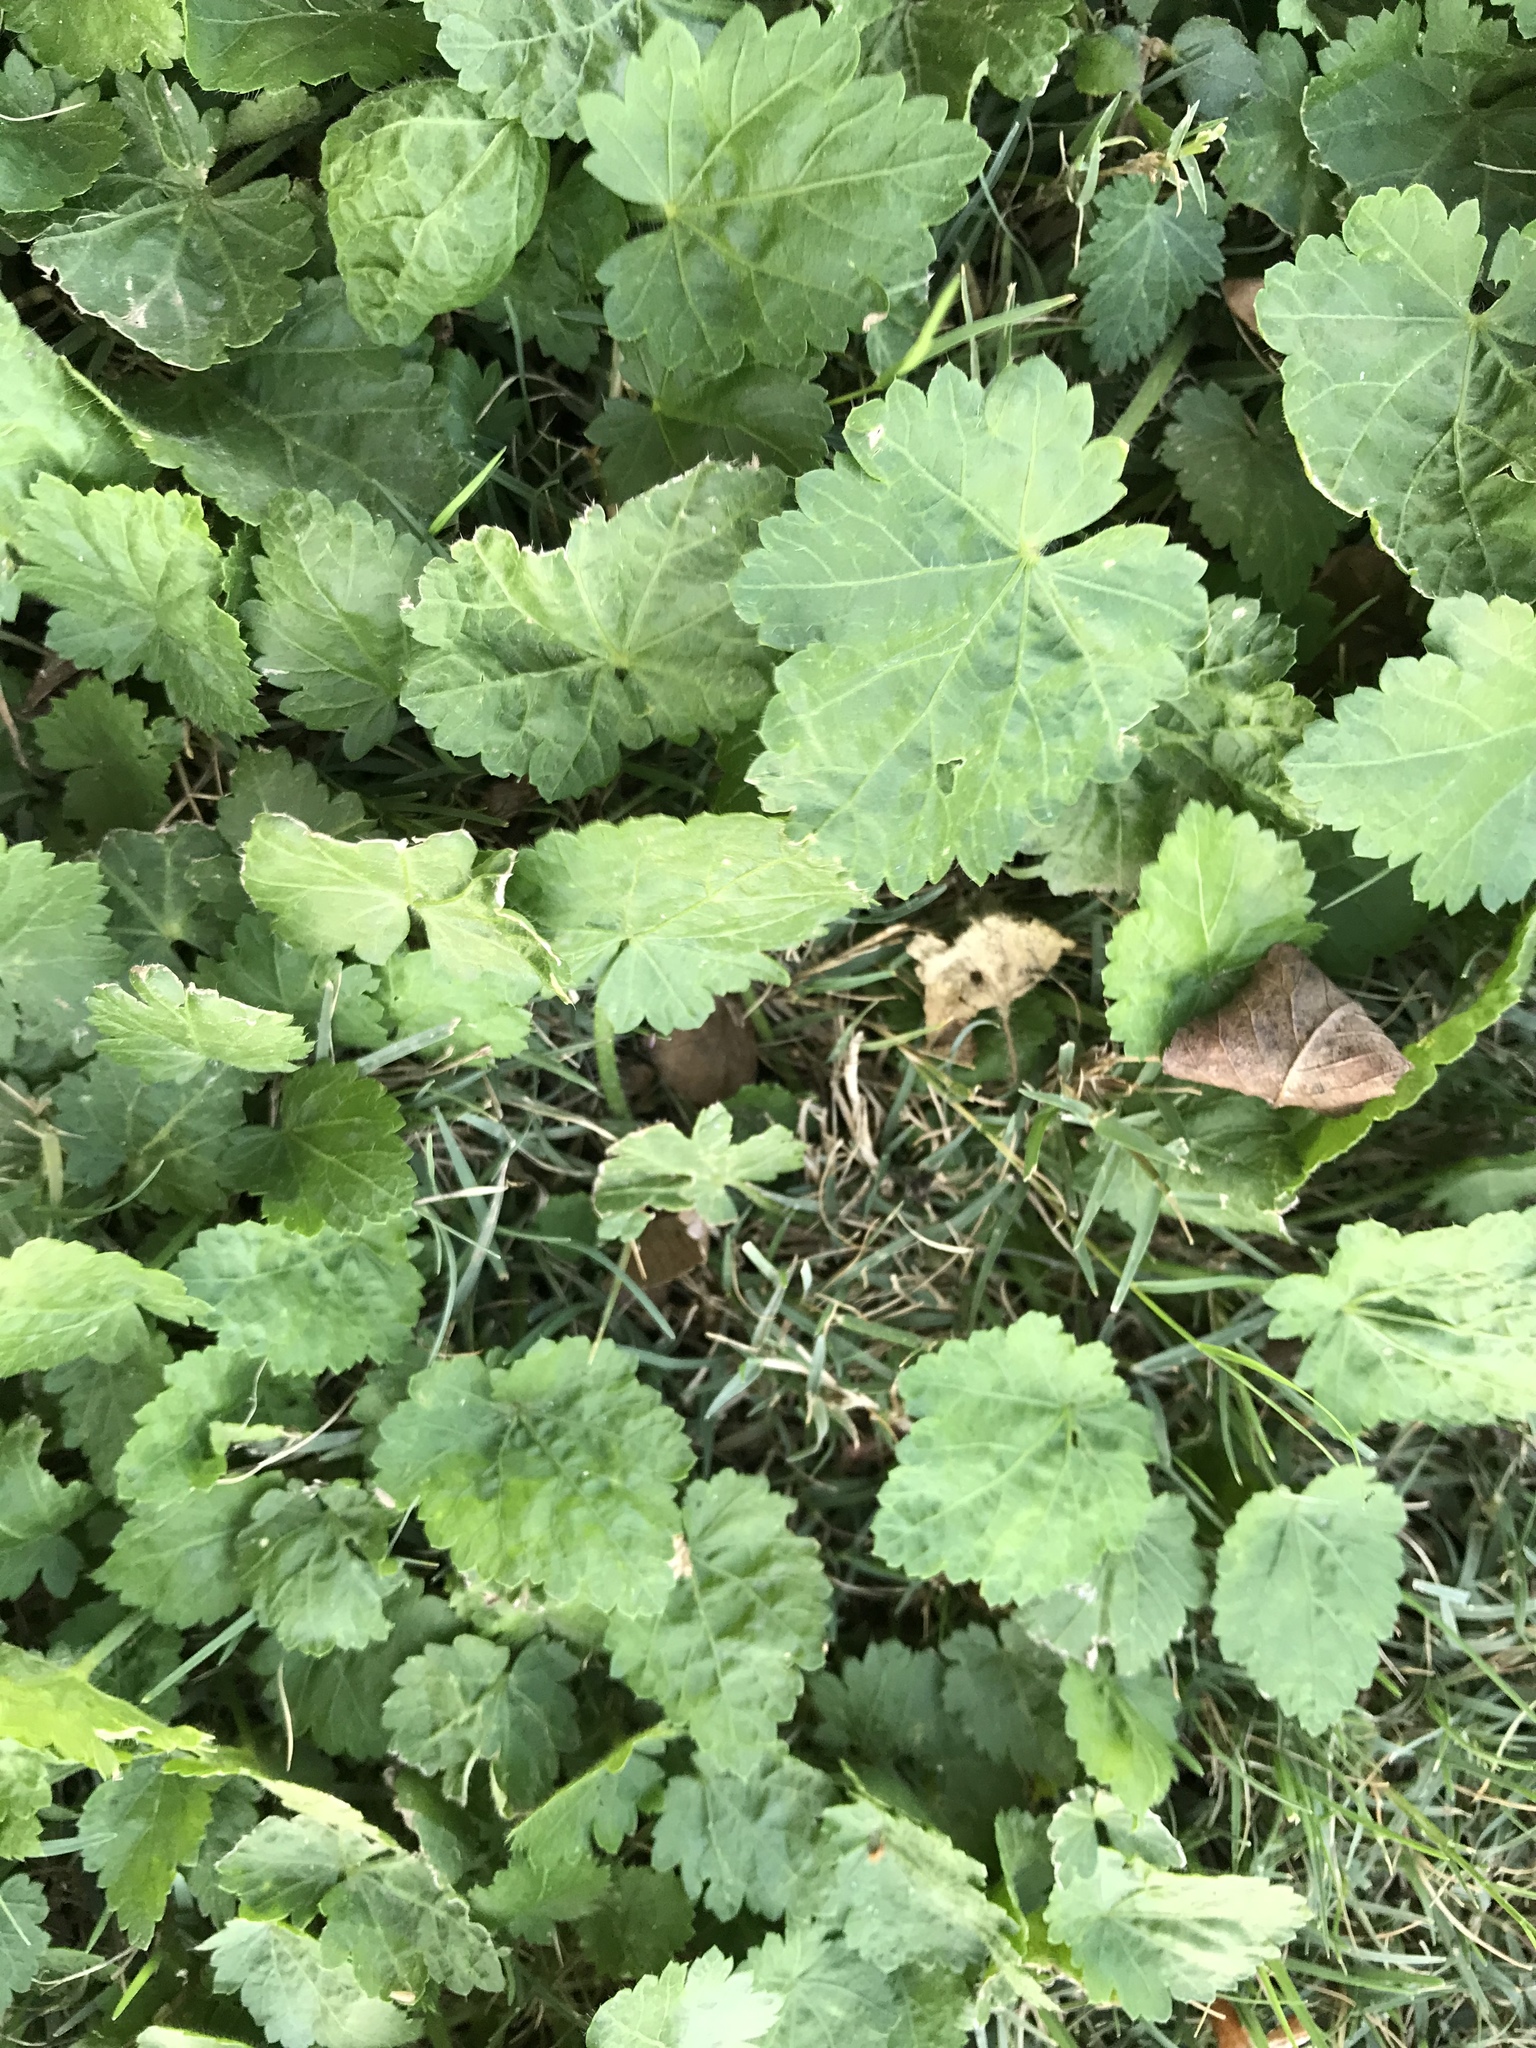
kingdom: Plantae
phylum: Tracheophyta
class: Magnoliopsida
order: Malvales
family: Malvaceae
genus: Modiola
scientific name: Modiola caroliniana
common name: Carolina bristlemallow
